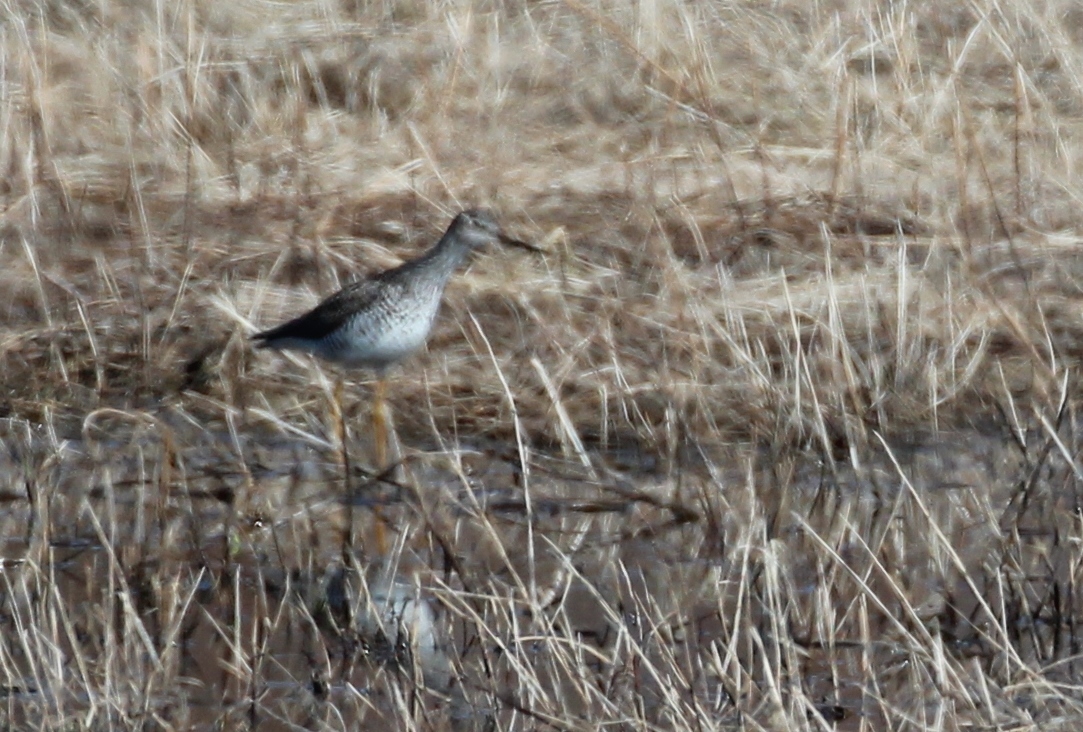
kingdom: Animalia
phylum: Chordata
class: Aves
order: Charadriiformes
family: Scolopacidae
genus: Tringa
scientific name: Tringa melanoleuca
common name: Greater yellowlegs
